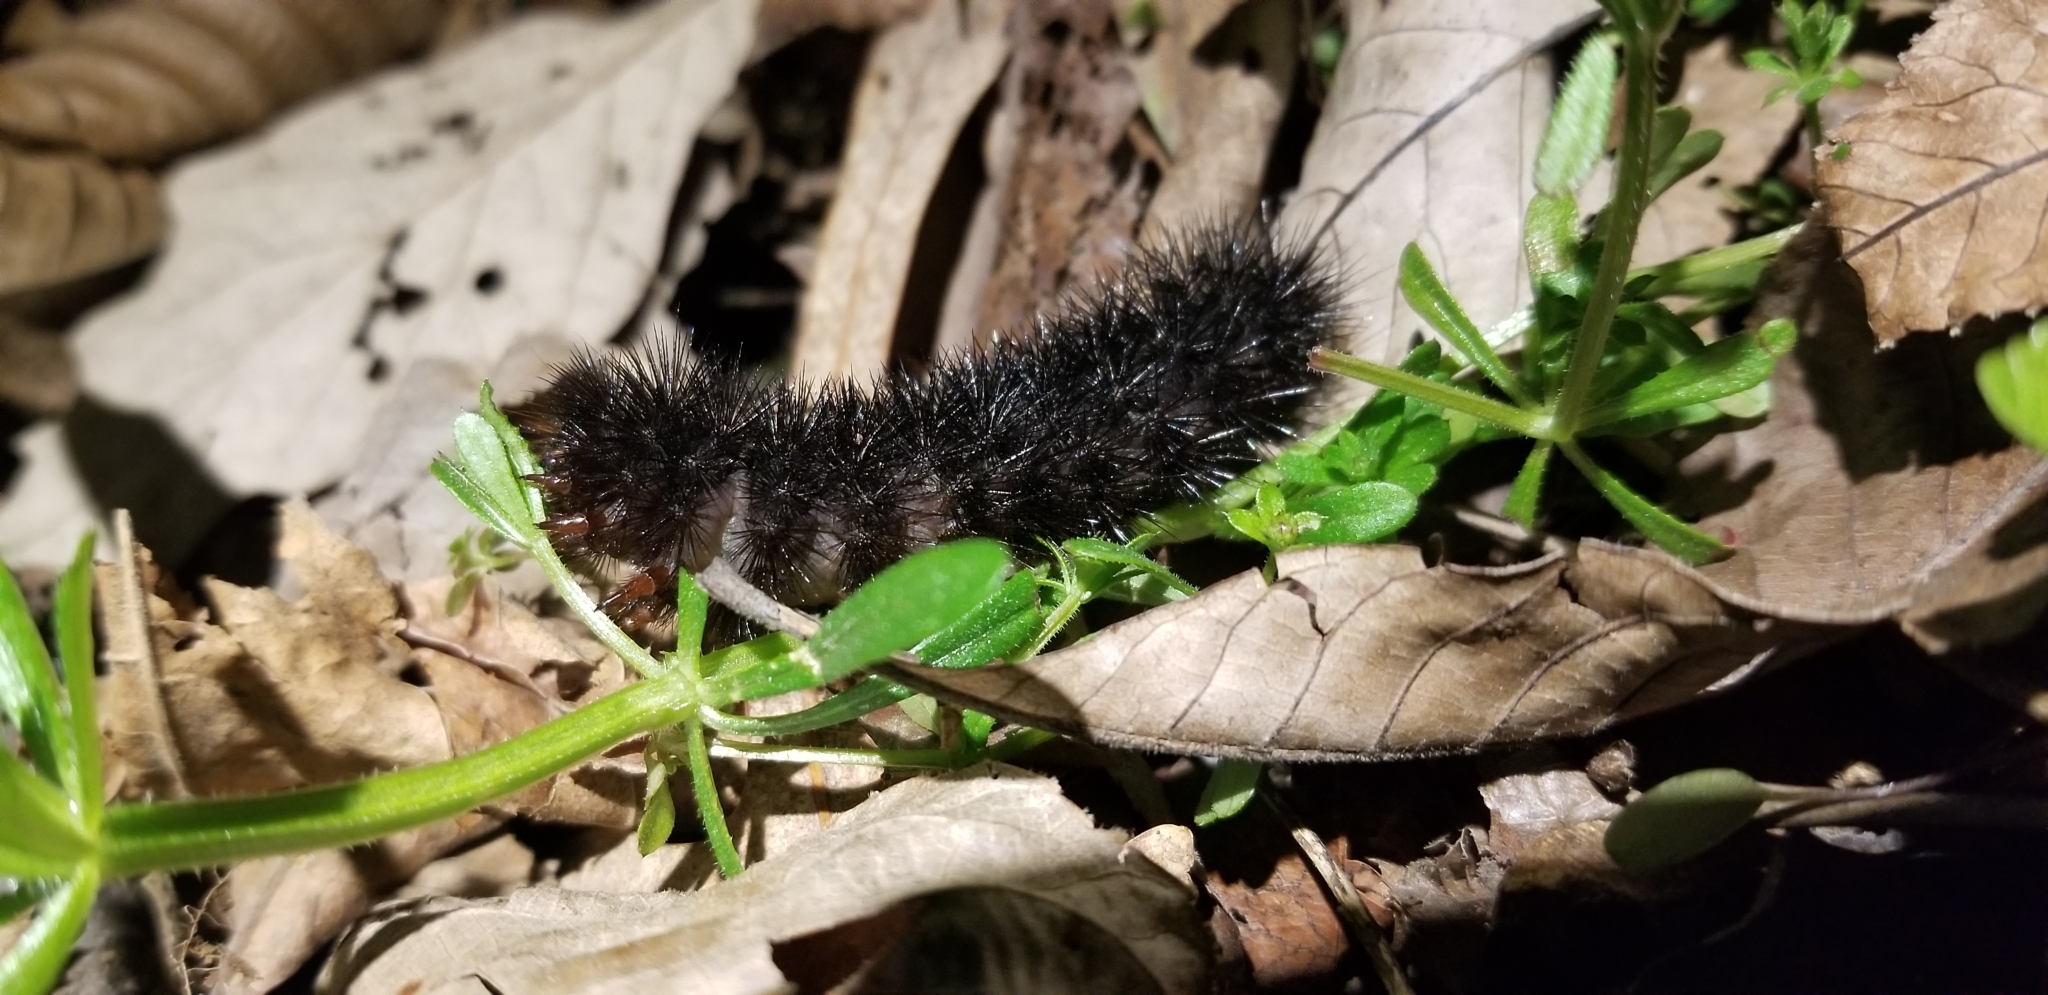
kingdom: Animalia
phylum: Arthropoda
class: Insecta
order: Lepidoptera
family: Erebidae
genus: Hypercompe
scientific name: Hypercompe scribonia
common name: Giant leopard moth
